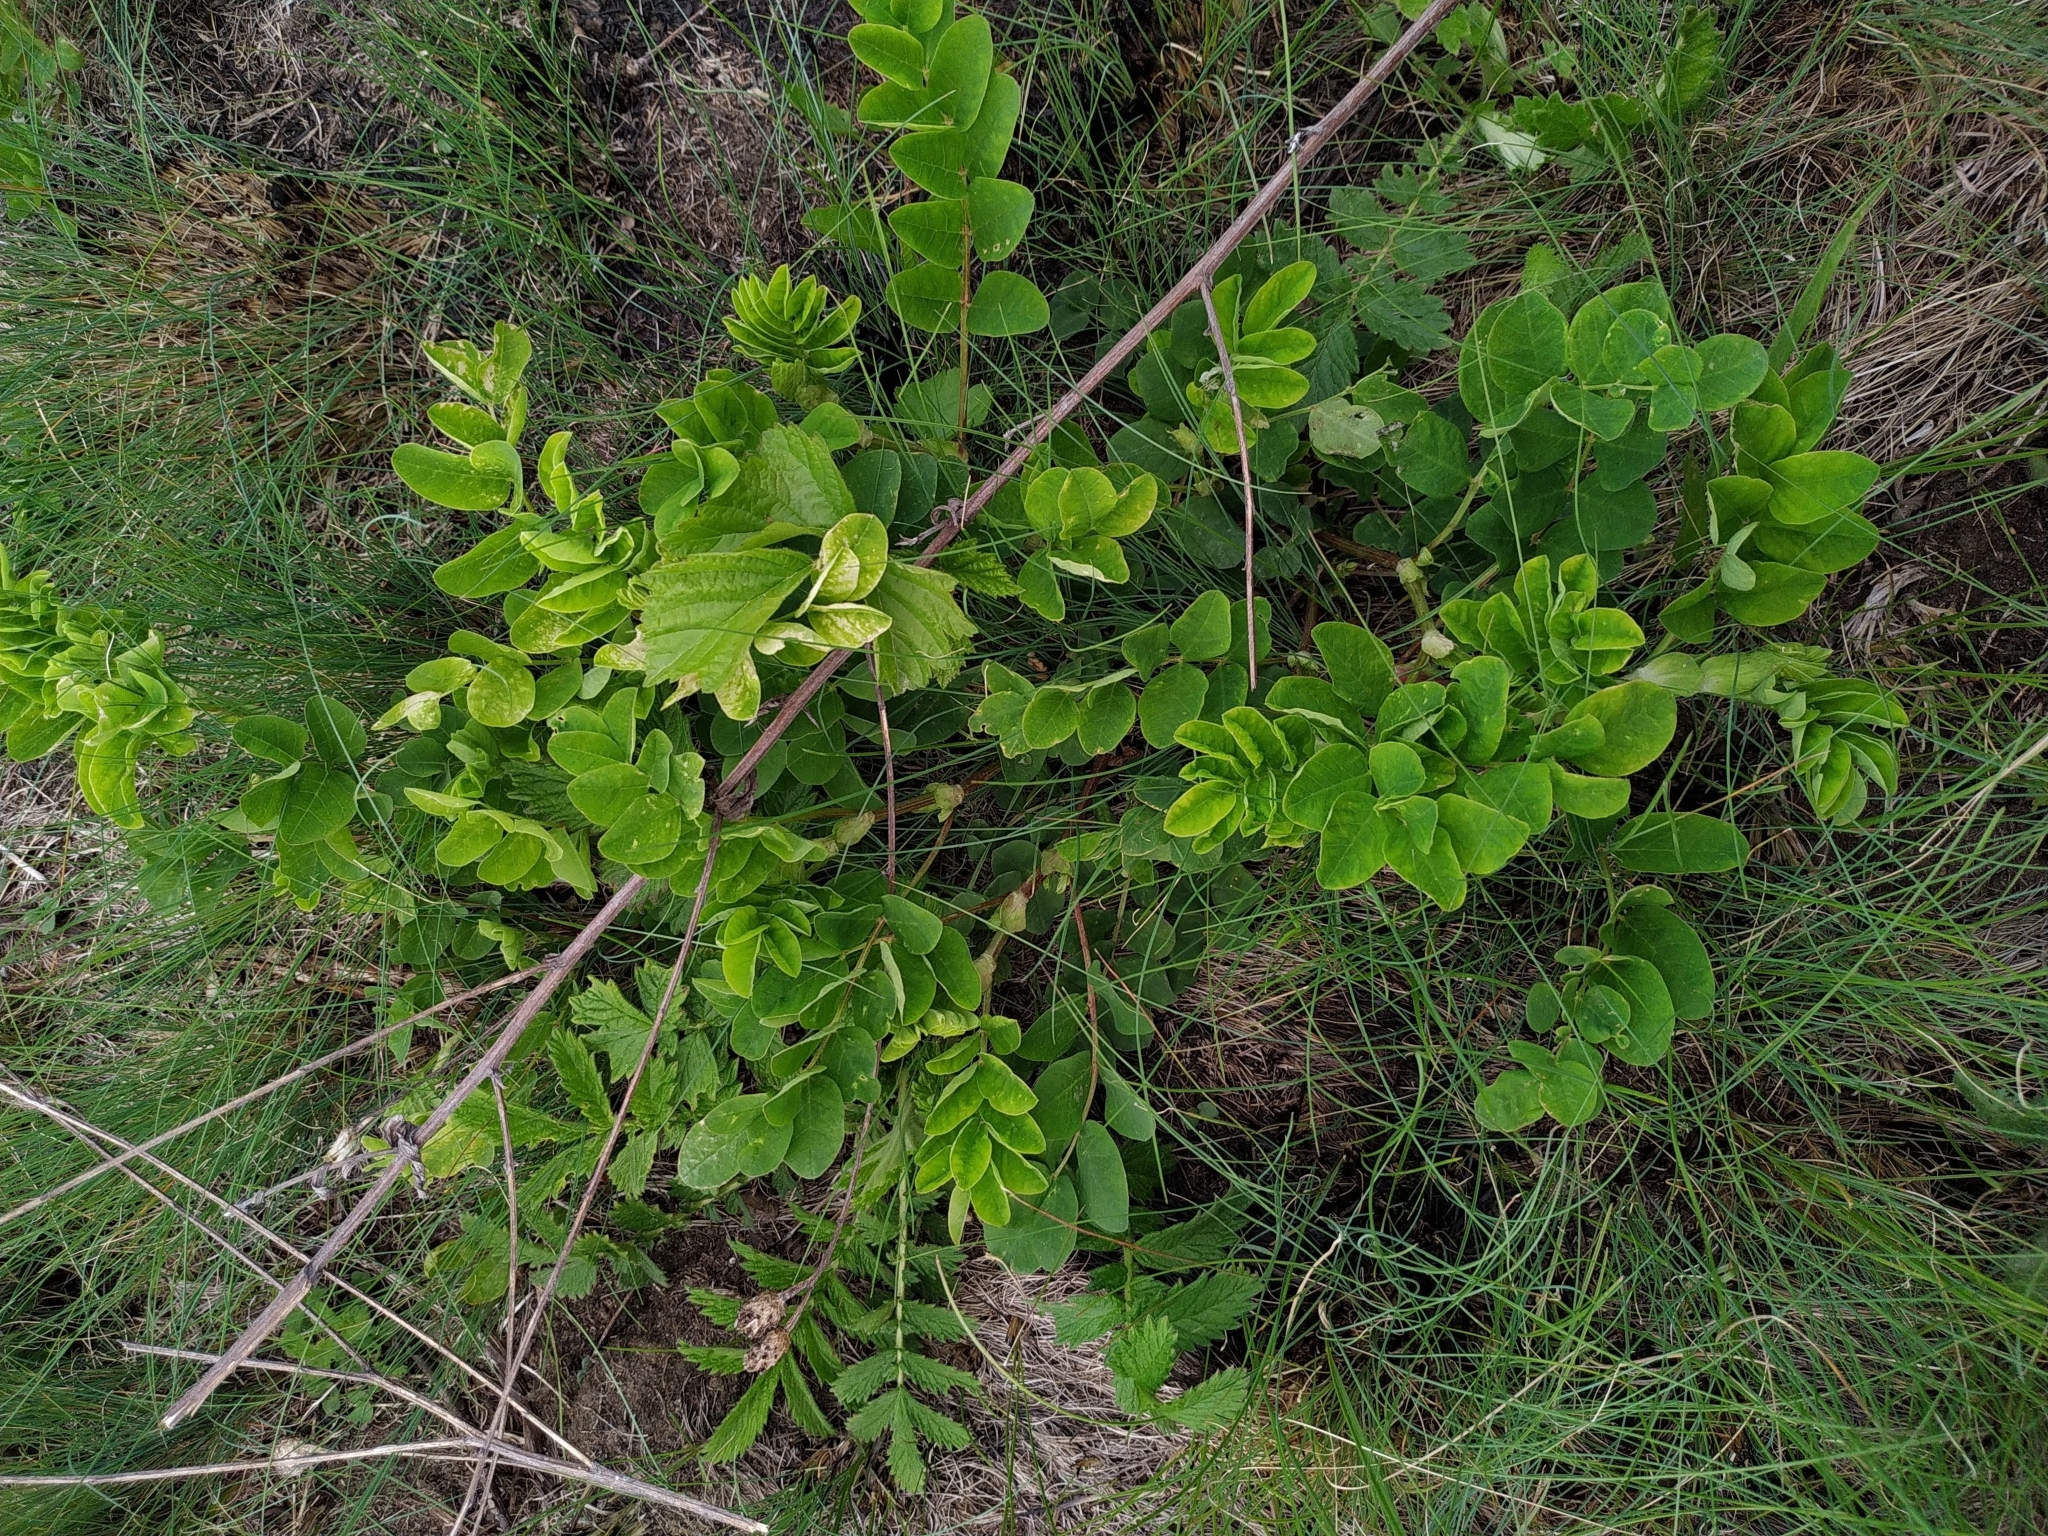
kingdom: Plantae
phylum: Tracheophyta
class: Magnoliopsida
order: Fabales
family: Fabaceae
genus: Astragalus
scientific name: Astragalus glycyphyllos
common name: Wild liquorice
